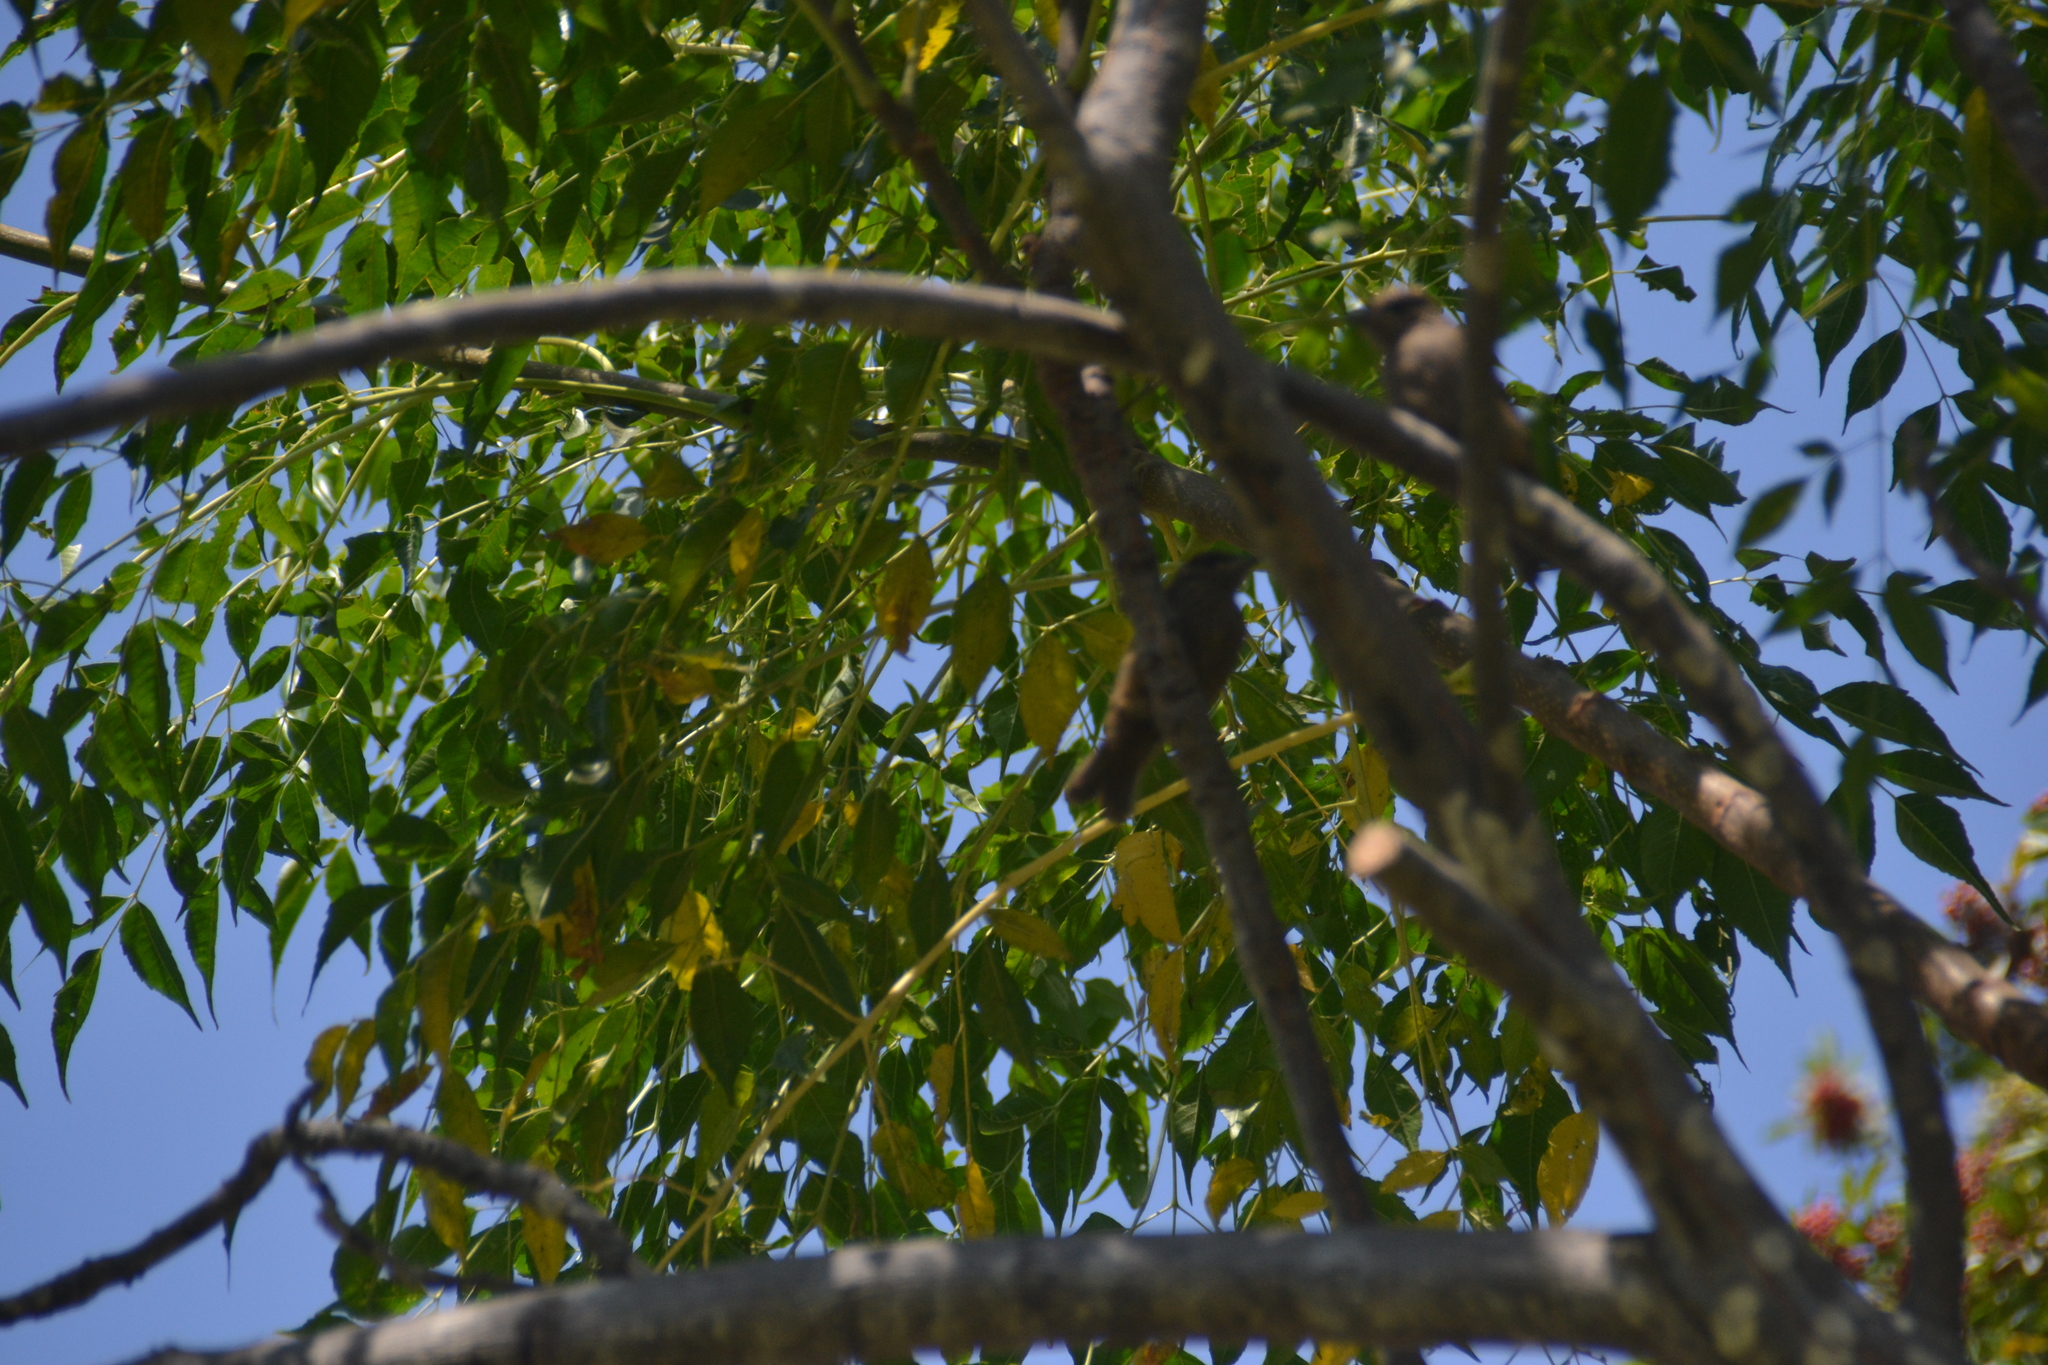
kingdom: Animalia
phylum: Chordata
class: Aves
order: Passeriformes
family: Tyrannidae
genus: Pyrocephalus
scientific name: Pyrocephalus rubinus
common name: Vermilion flycatcher
